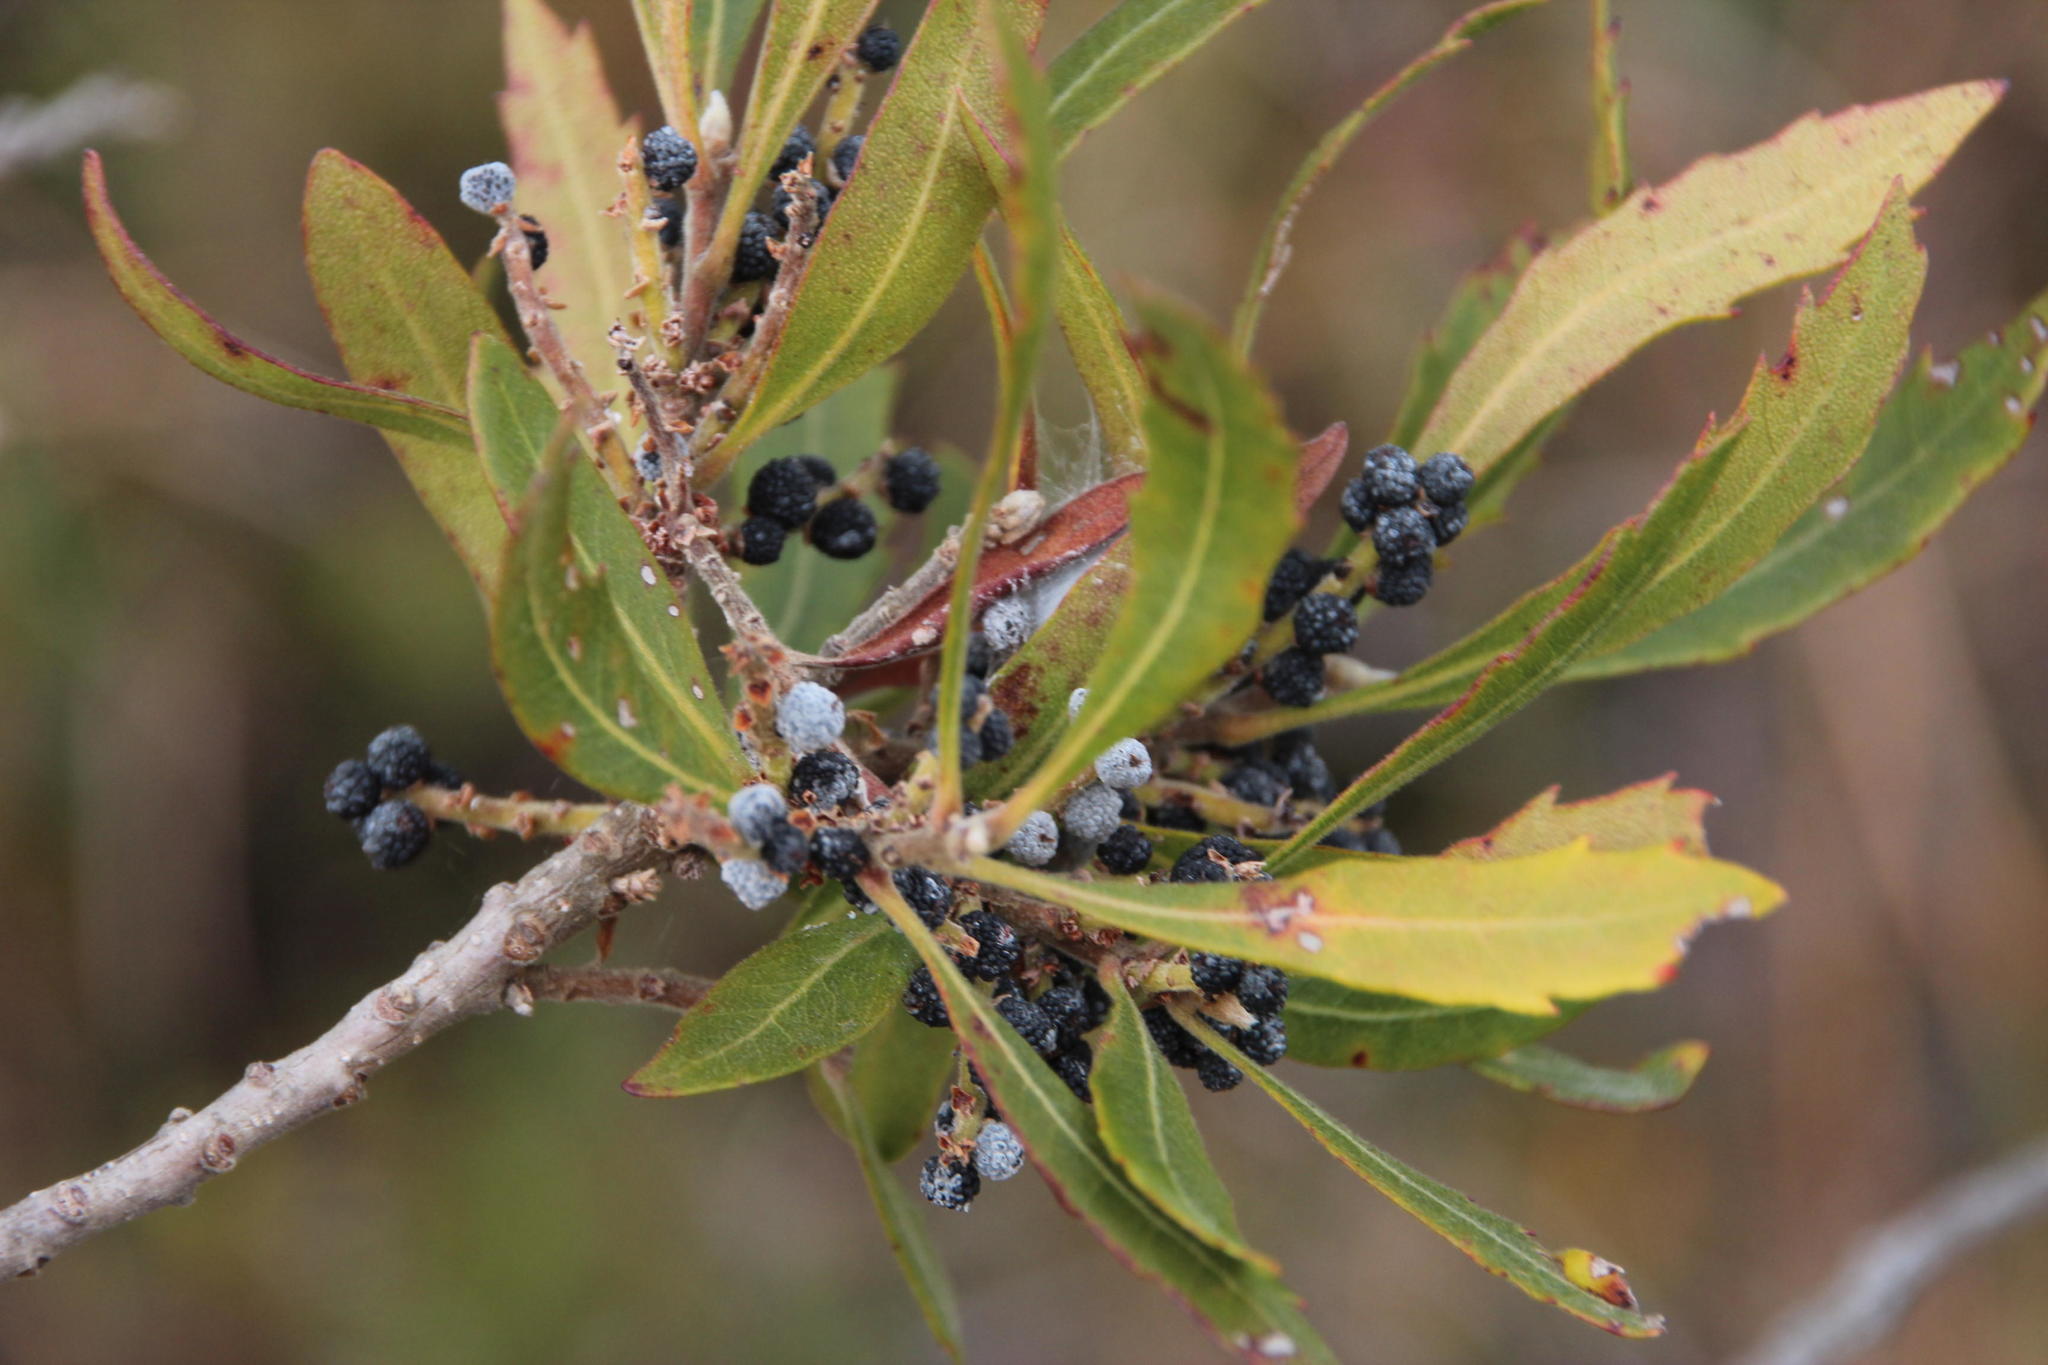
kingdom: Plantae
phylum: Tracheophyta
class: Magnoliopsida
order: Fagales
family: Myricaceae
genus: Morella
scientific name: Morella serrata
